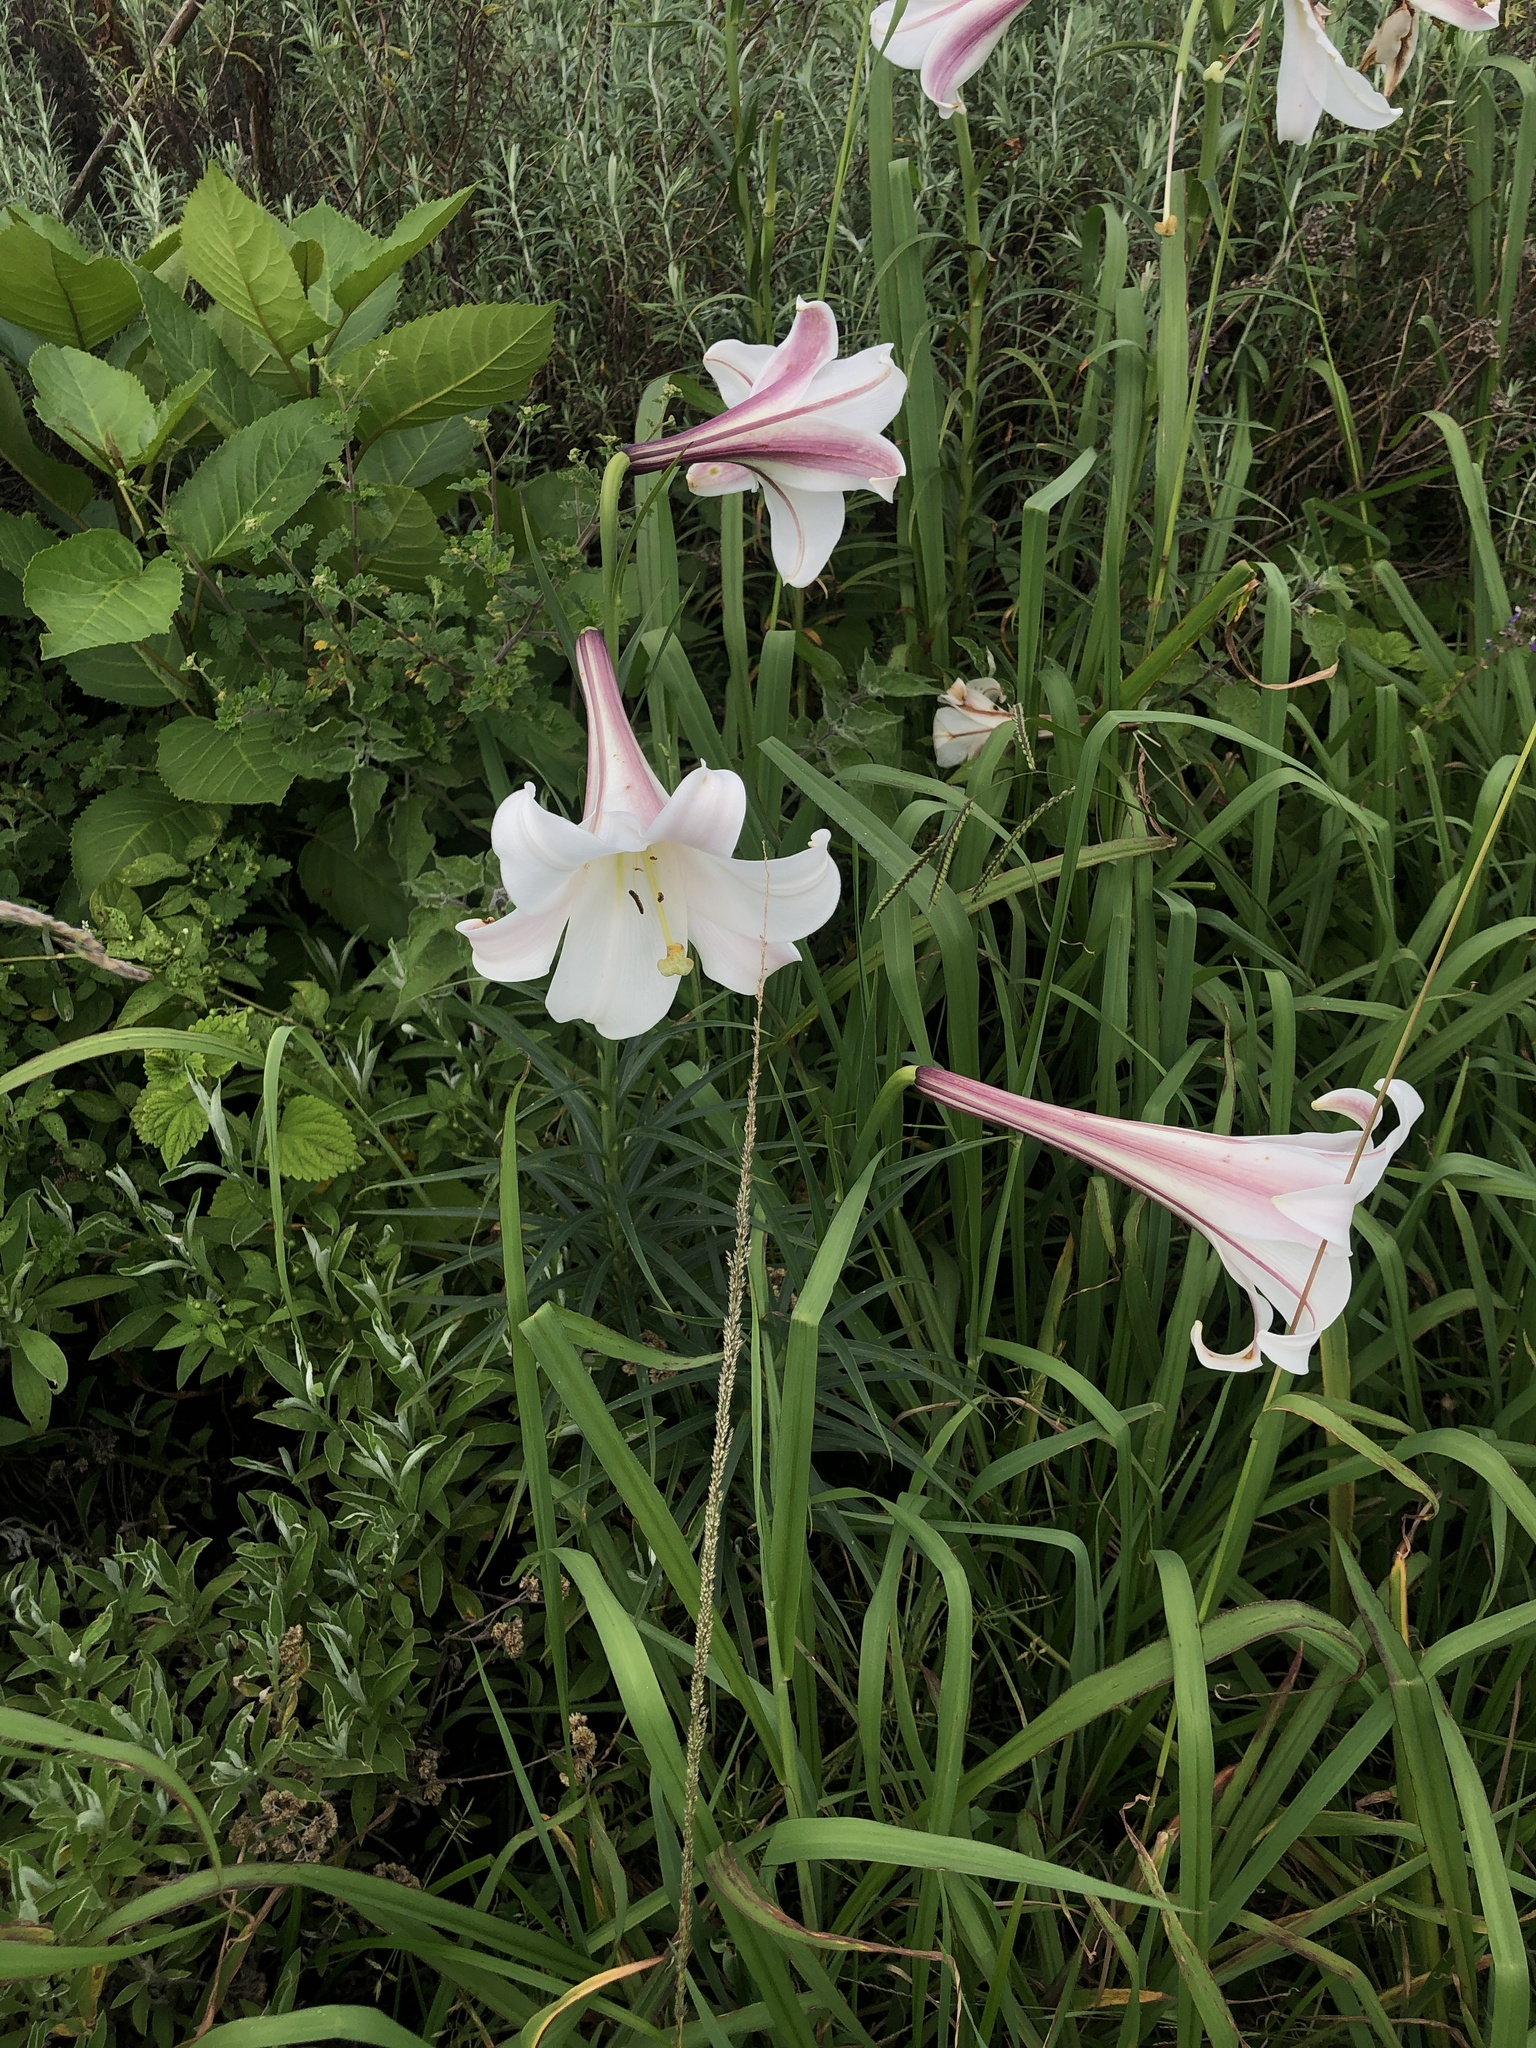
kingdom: Plantae
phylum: Tracheophyta
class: Liliopsida
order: Liliales
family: Liliaceae
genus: Lilium
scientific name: Lilium formosanum
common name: Formosa lily
